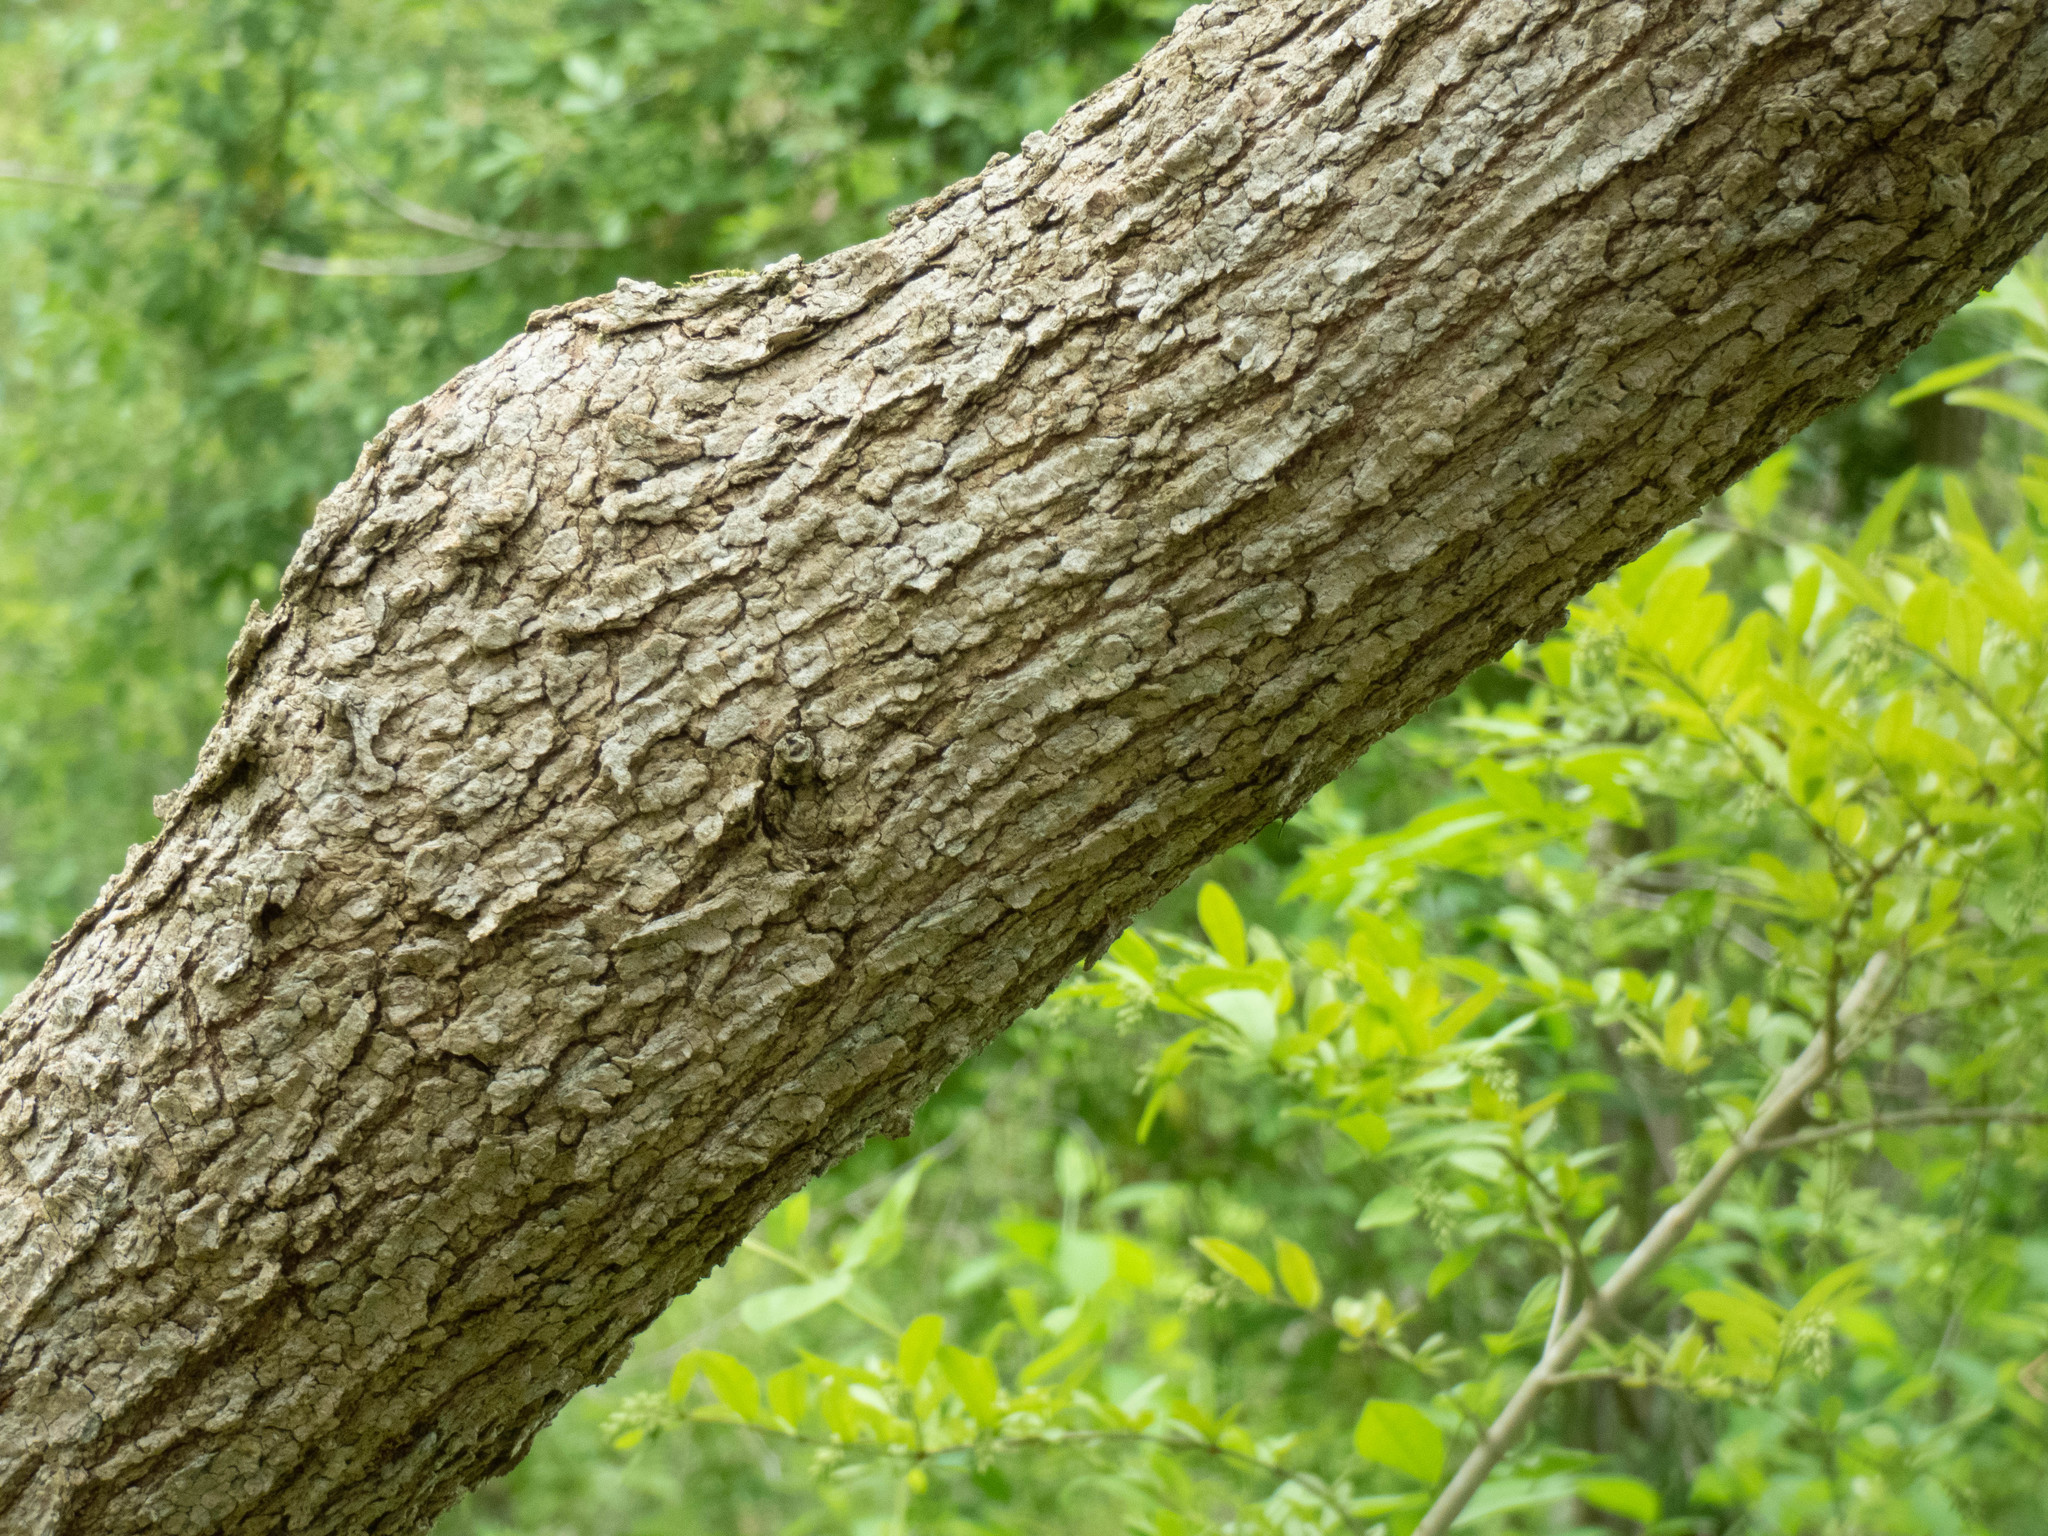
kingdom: Plantae
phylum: Tracheophyta
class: Magnoliopsida
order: Sapindales
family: Sapindaceae
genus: Acer
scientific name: Acer negundo
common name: Ashleaf maple
